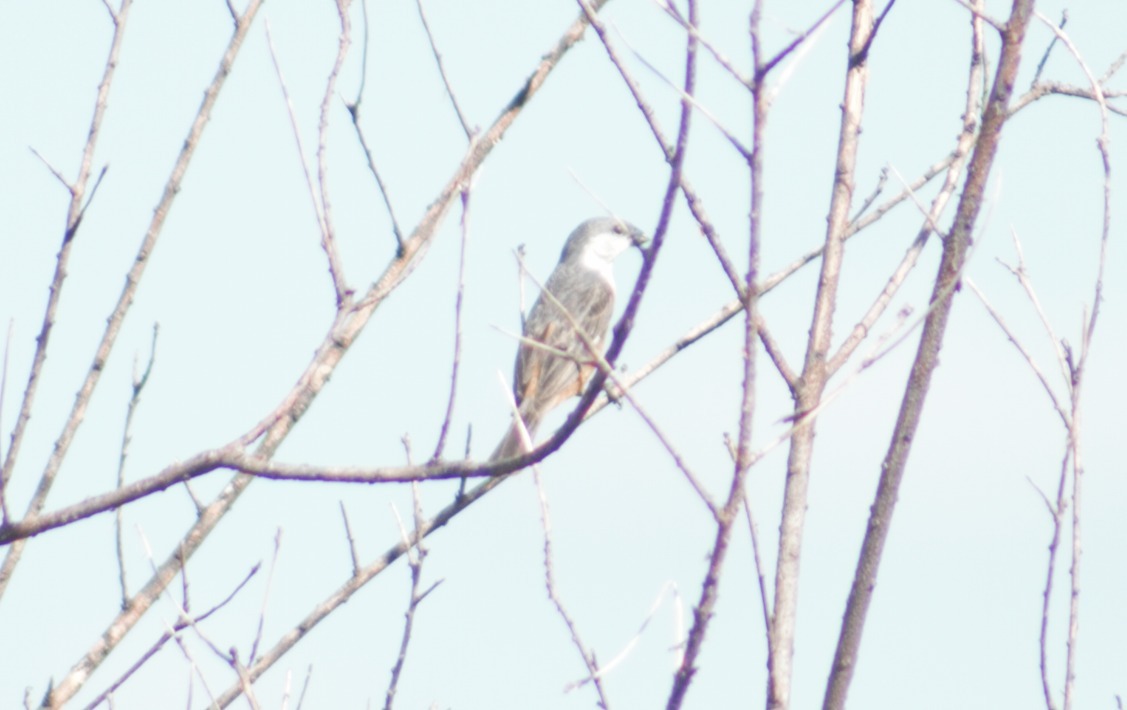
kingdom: Animalia
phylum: Chordata
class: Aves
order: Passeriformes
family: Thraupidae
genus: Sporophila
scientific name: Sporophila palustris
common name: Marsh seedeater
